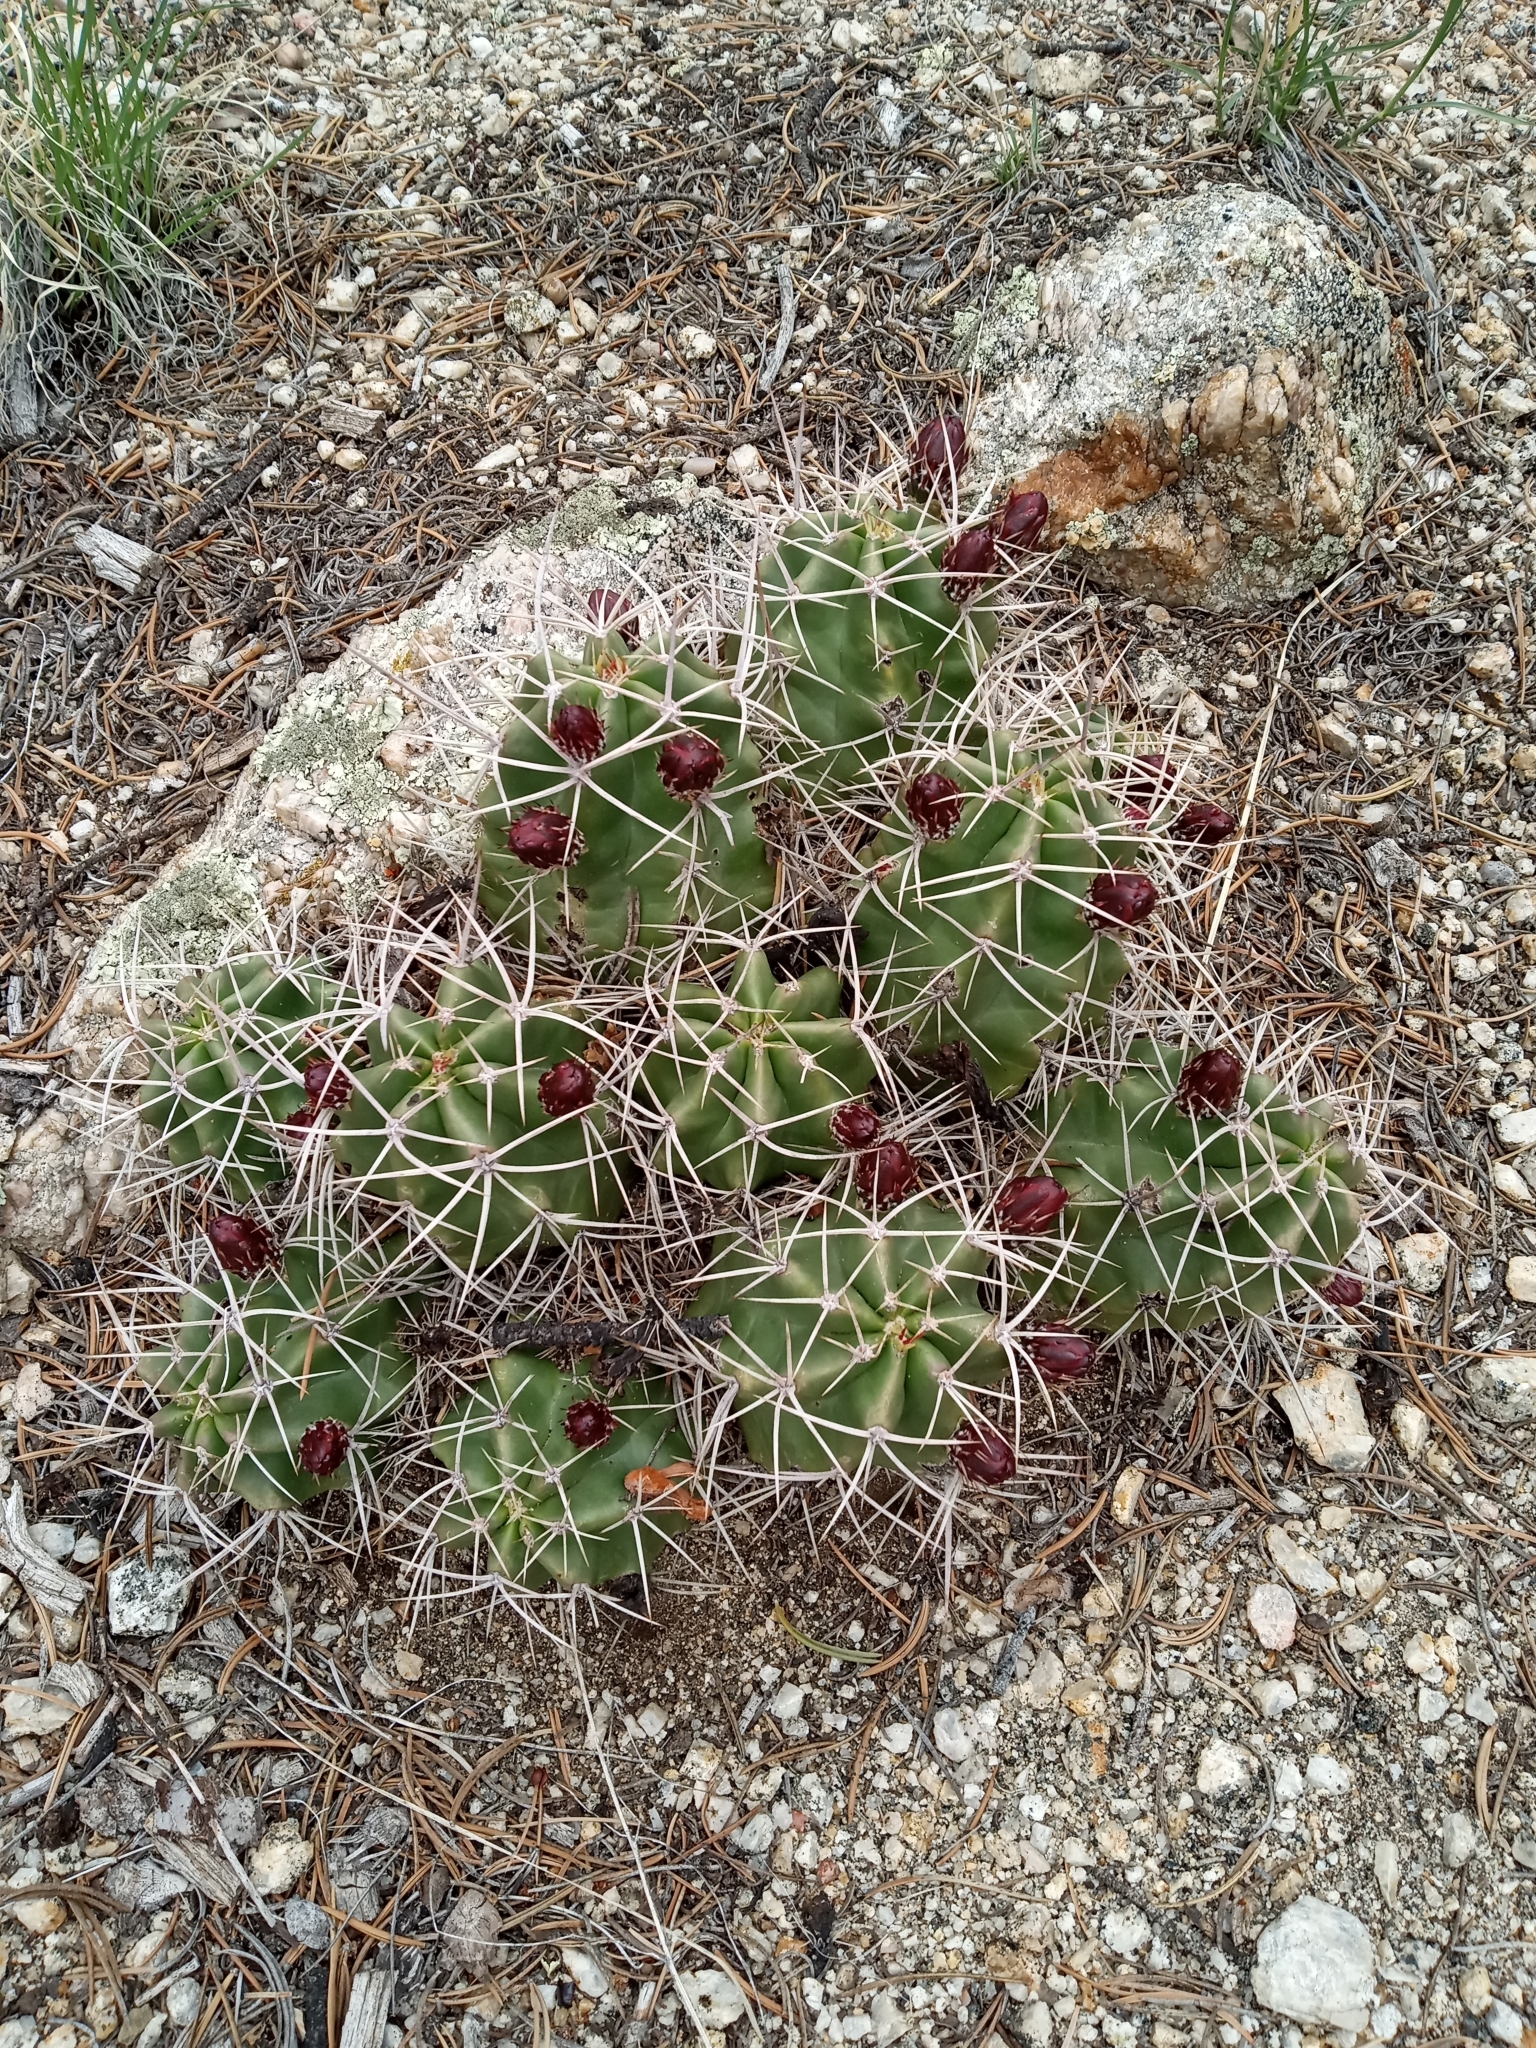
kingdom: Plantae
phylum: Tracheophyta
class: Magnoliopsida
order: Caryophyllales
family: Cactaceae
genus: Echinocereus
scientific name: Echinocereus triglochidiatus
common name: Claretcup hedgehog
